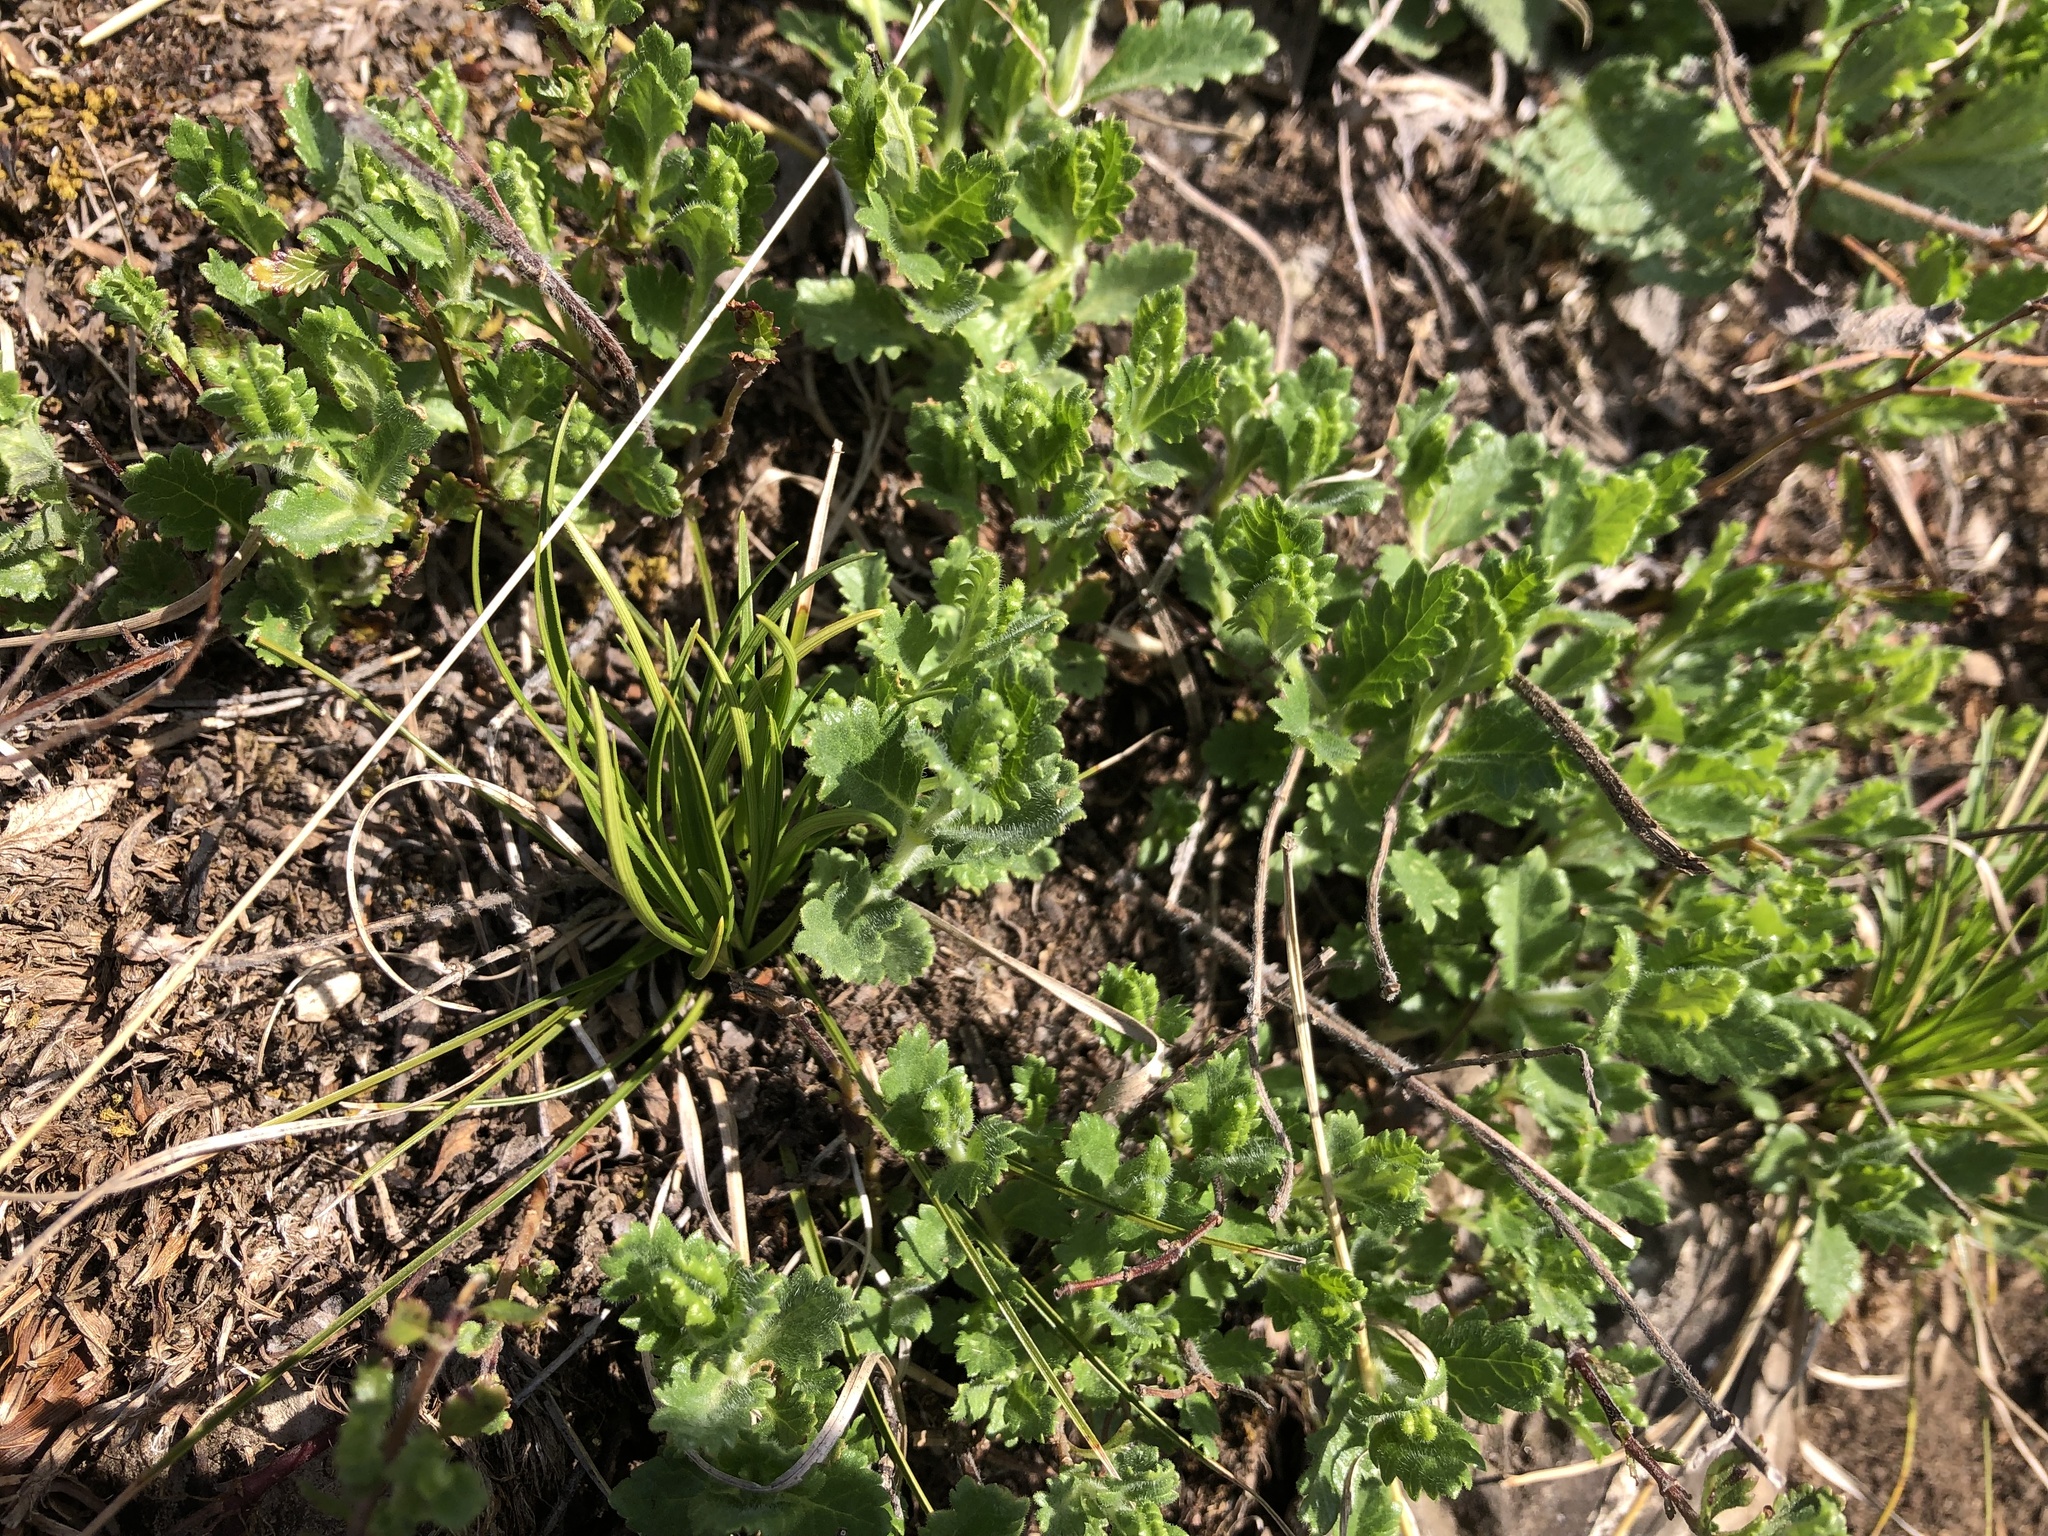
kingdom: Plantae
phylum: Tracheophyta
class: Magnoliopsida
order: Lamiales
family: Lamiaceae
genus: Teucrium
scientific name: Teucrium chamaedrys
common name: Wall germander
